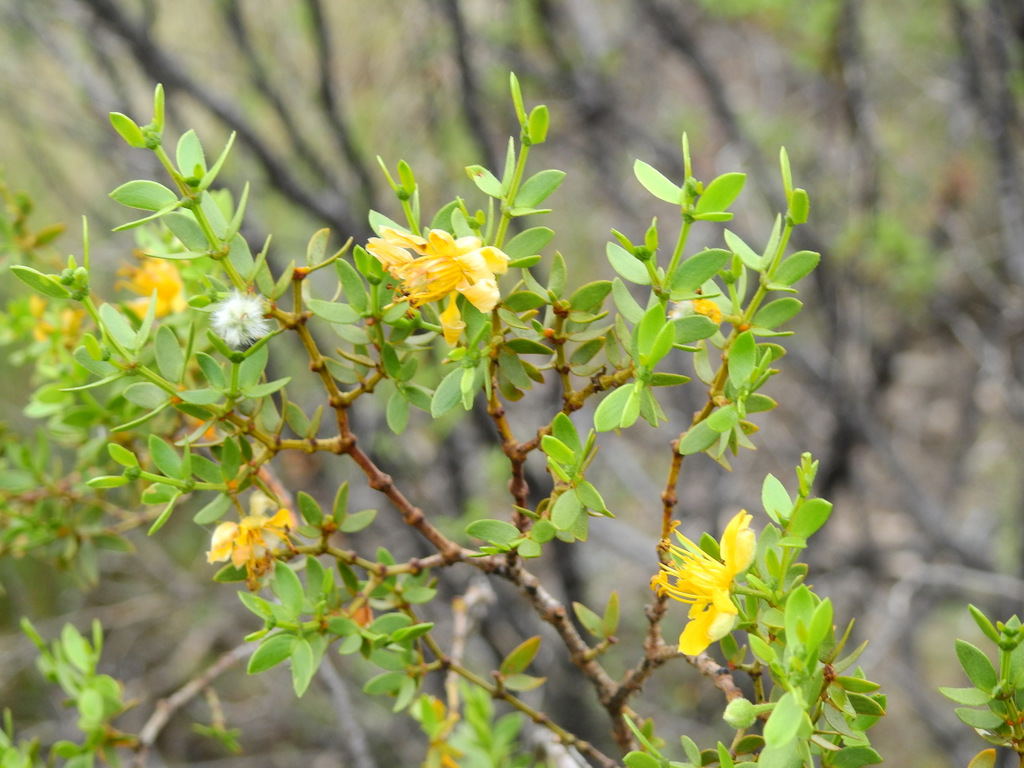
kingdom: Plantae
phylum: Tracheophyta
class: Magnoliopsida
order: Zygophyllales
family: Zygophyllaceae
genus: Larrea
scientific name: Larrea divaricata
